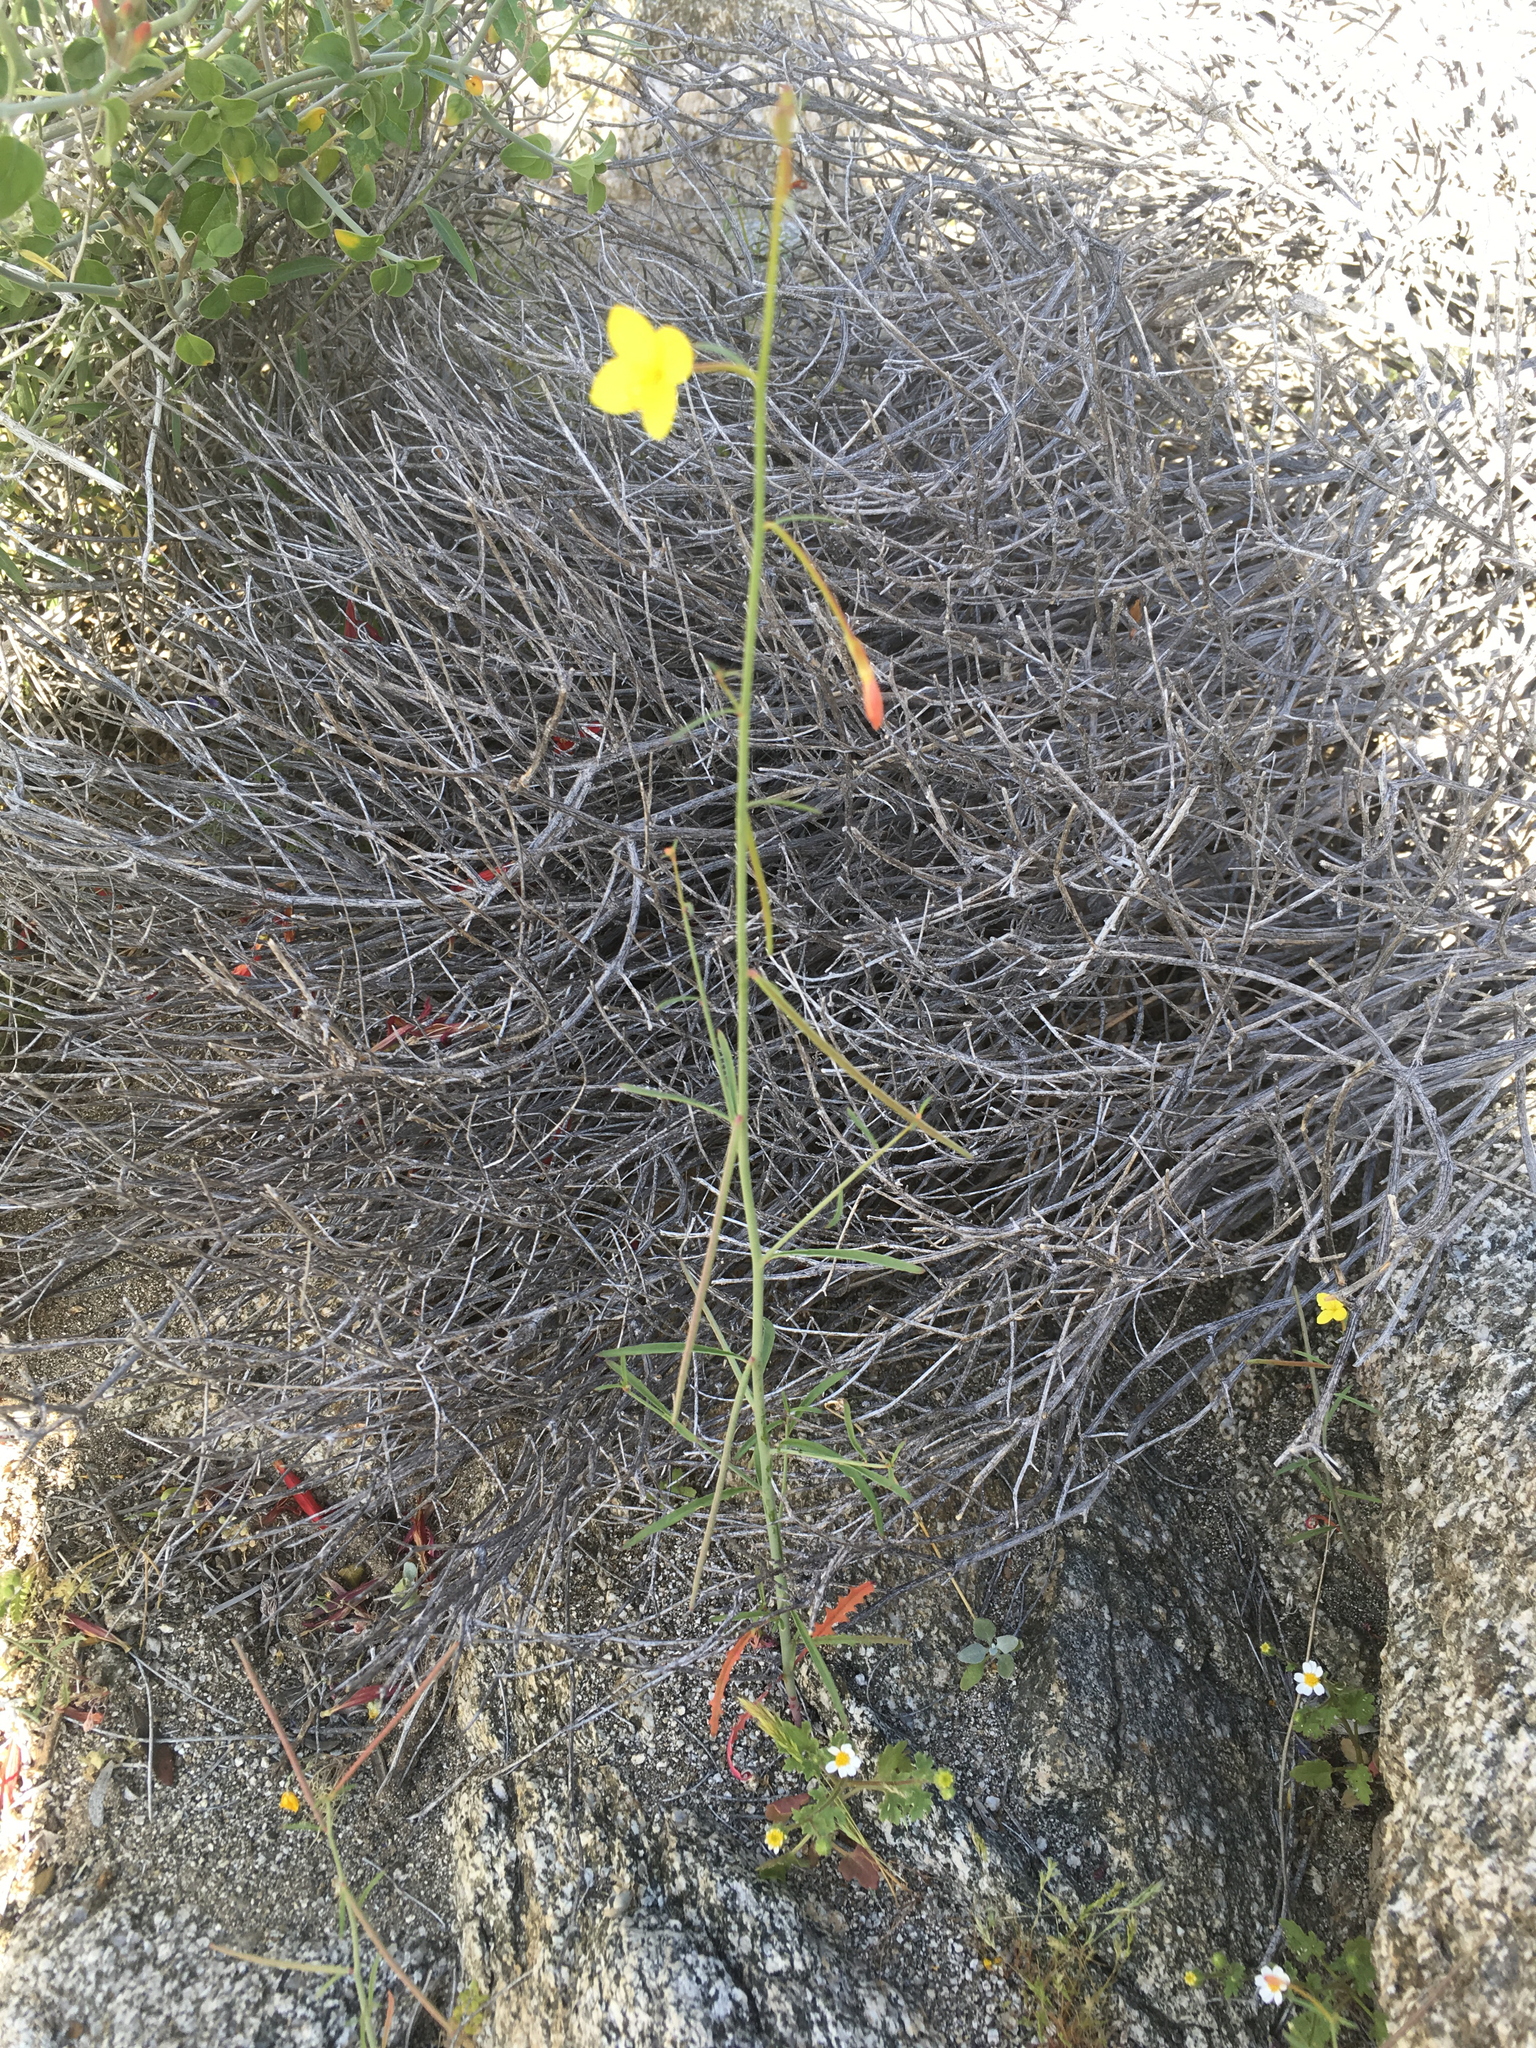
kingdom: Plantae
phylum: Tracheophyta
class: Magnoliopsida
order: Myrtales
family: Onagraceae
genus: Eulobus
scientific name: Eulobus californicus
